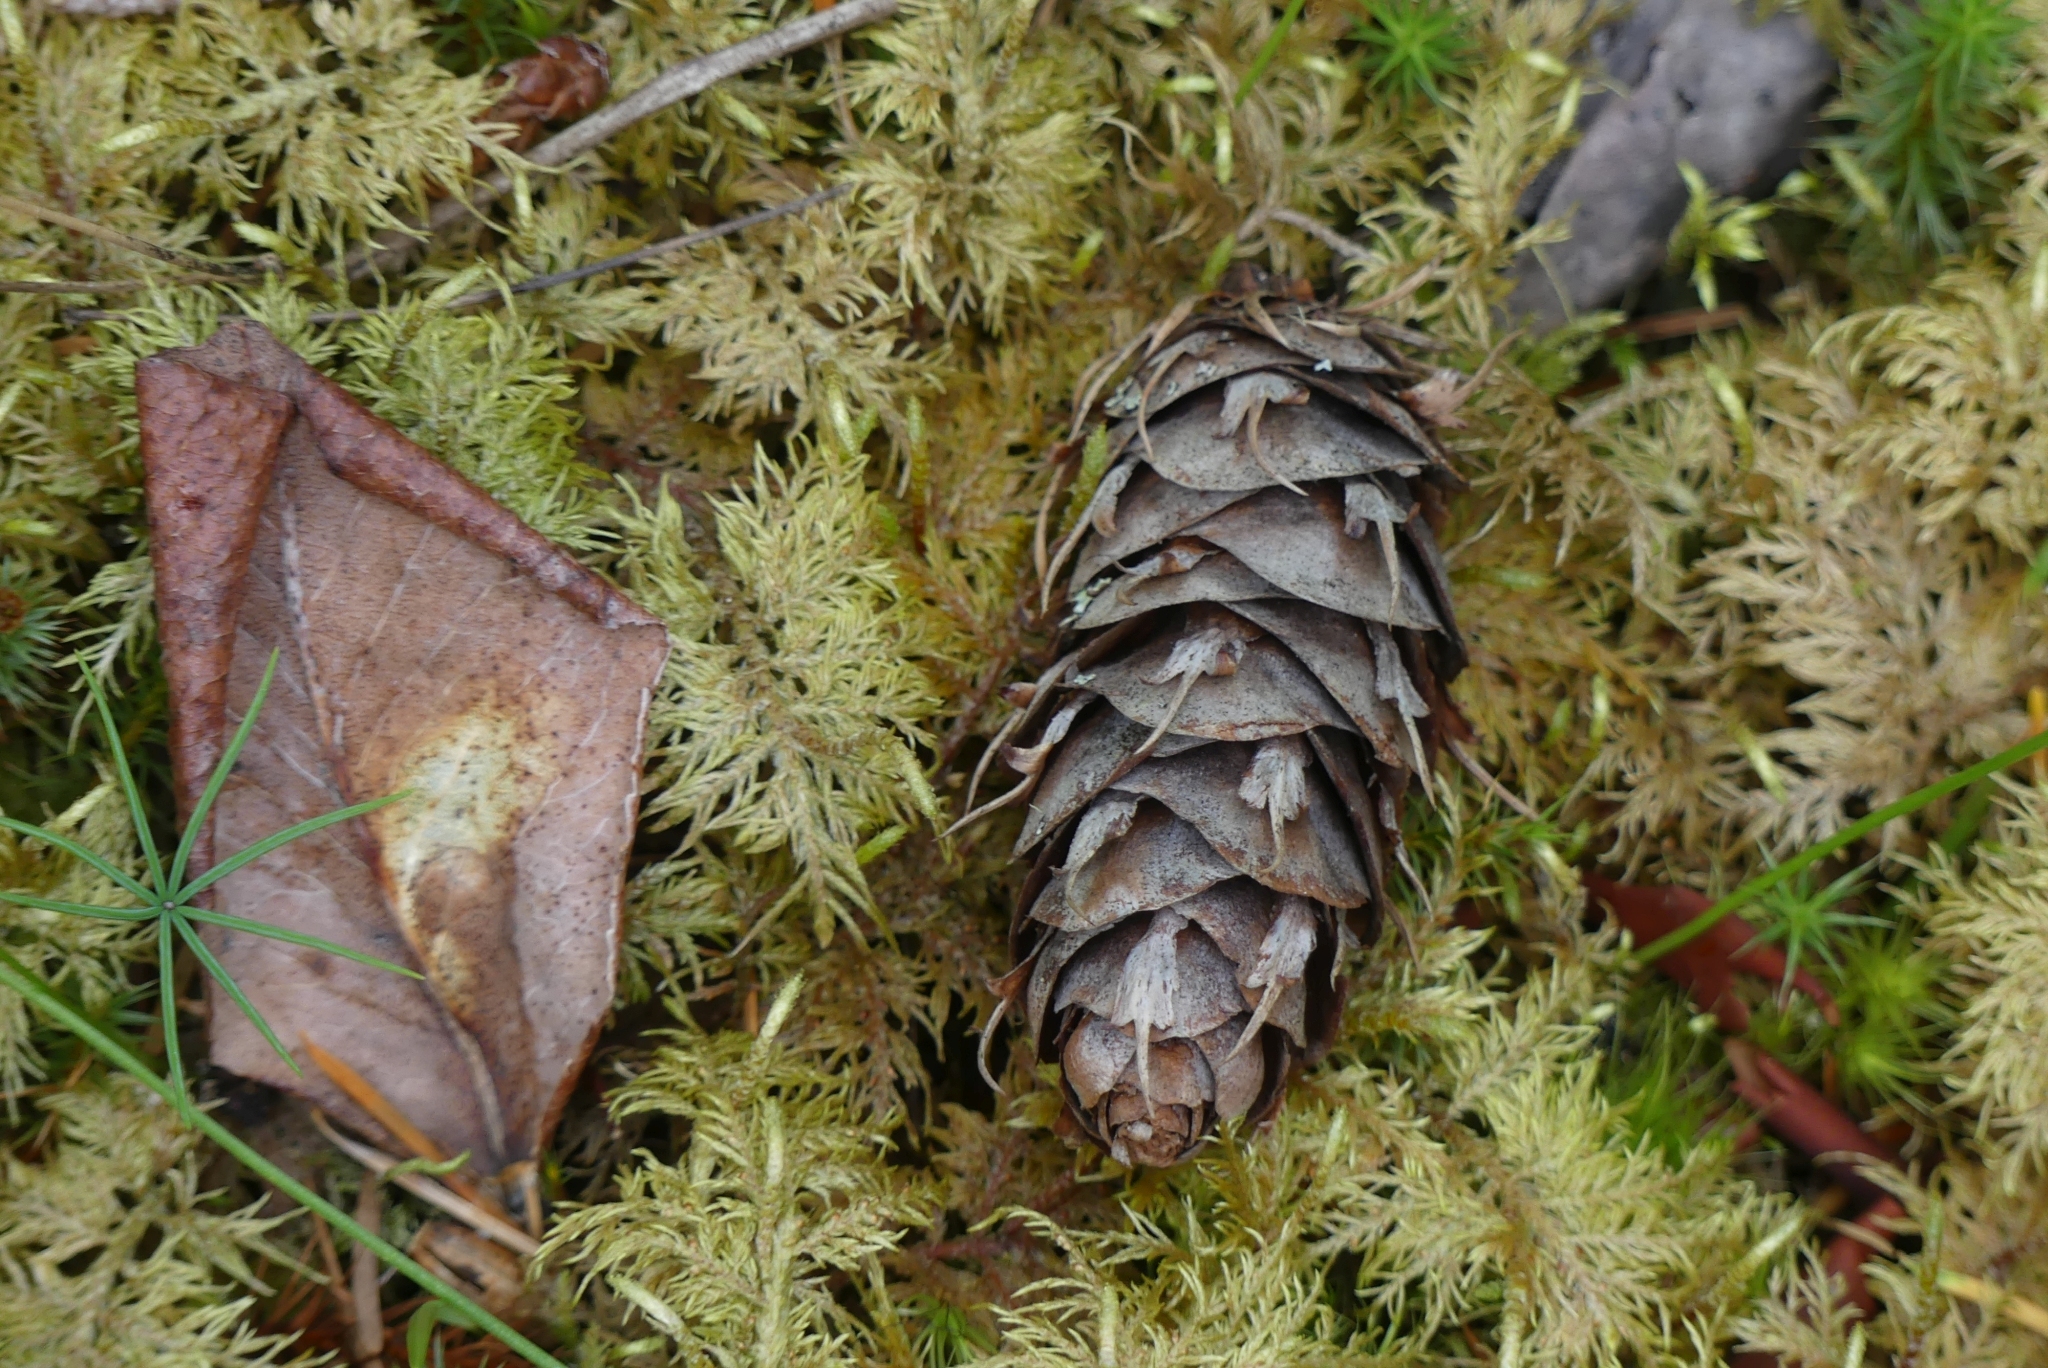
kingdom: Plantae
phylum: Tracheophyta
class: Pinopsida
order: Pinales
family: Pinaceae
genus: Pseudotsuga
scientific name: Pseudotsuga menziesii
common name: Douglas fir
